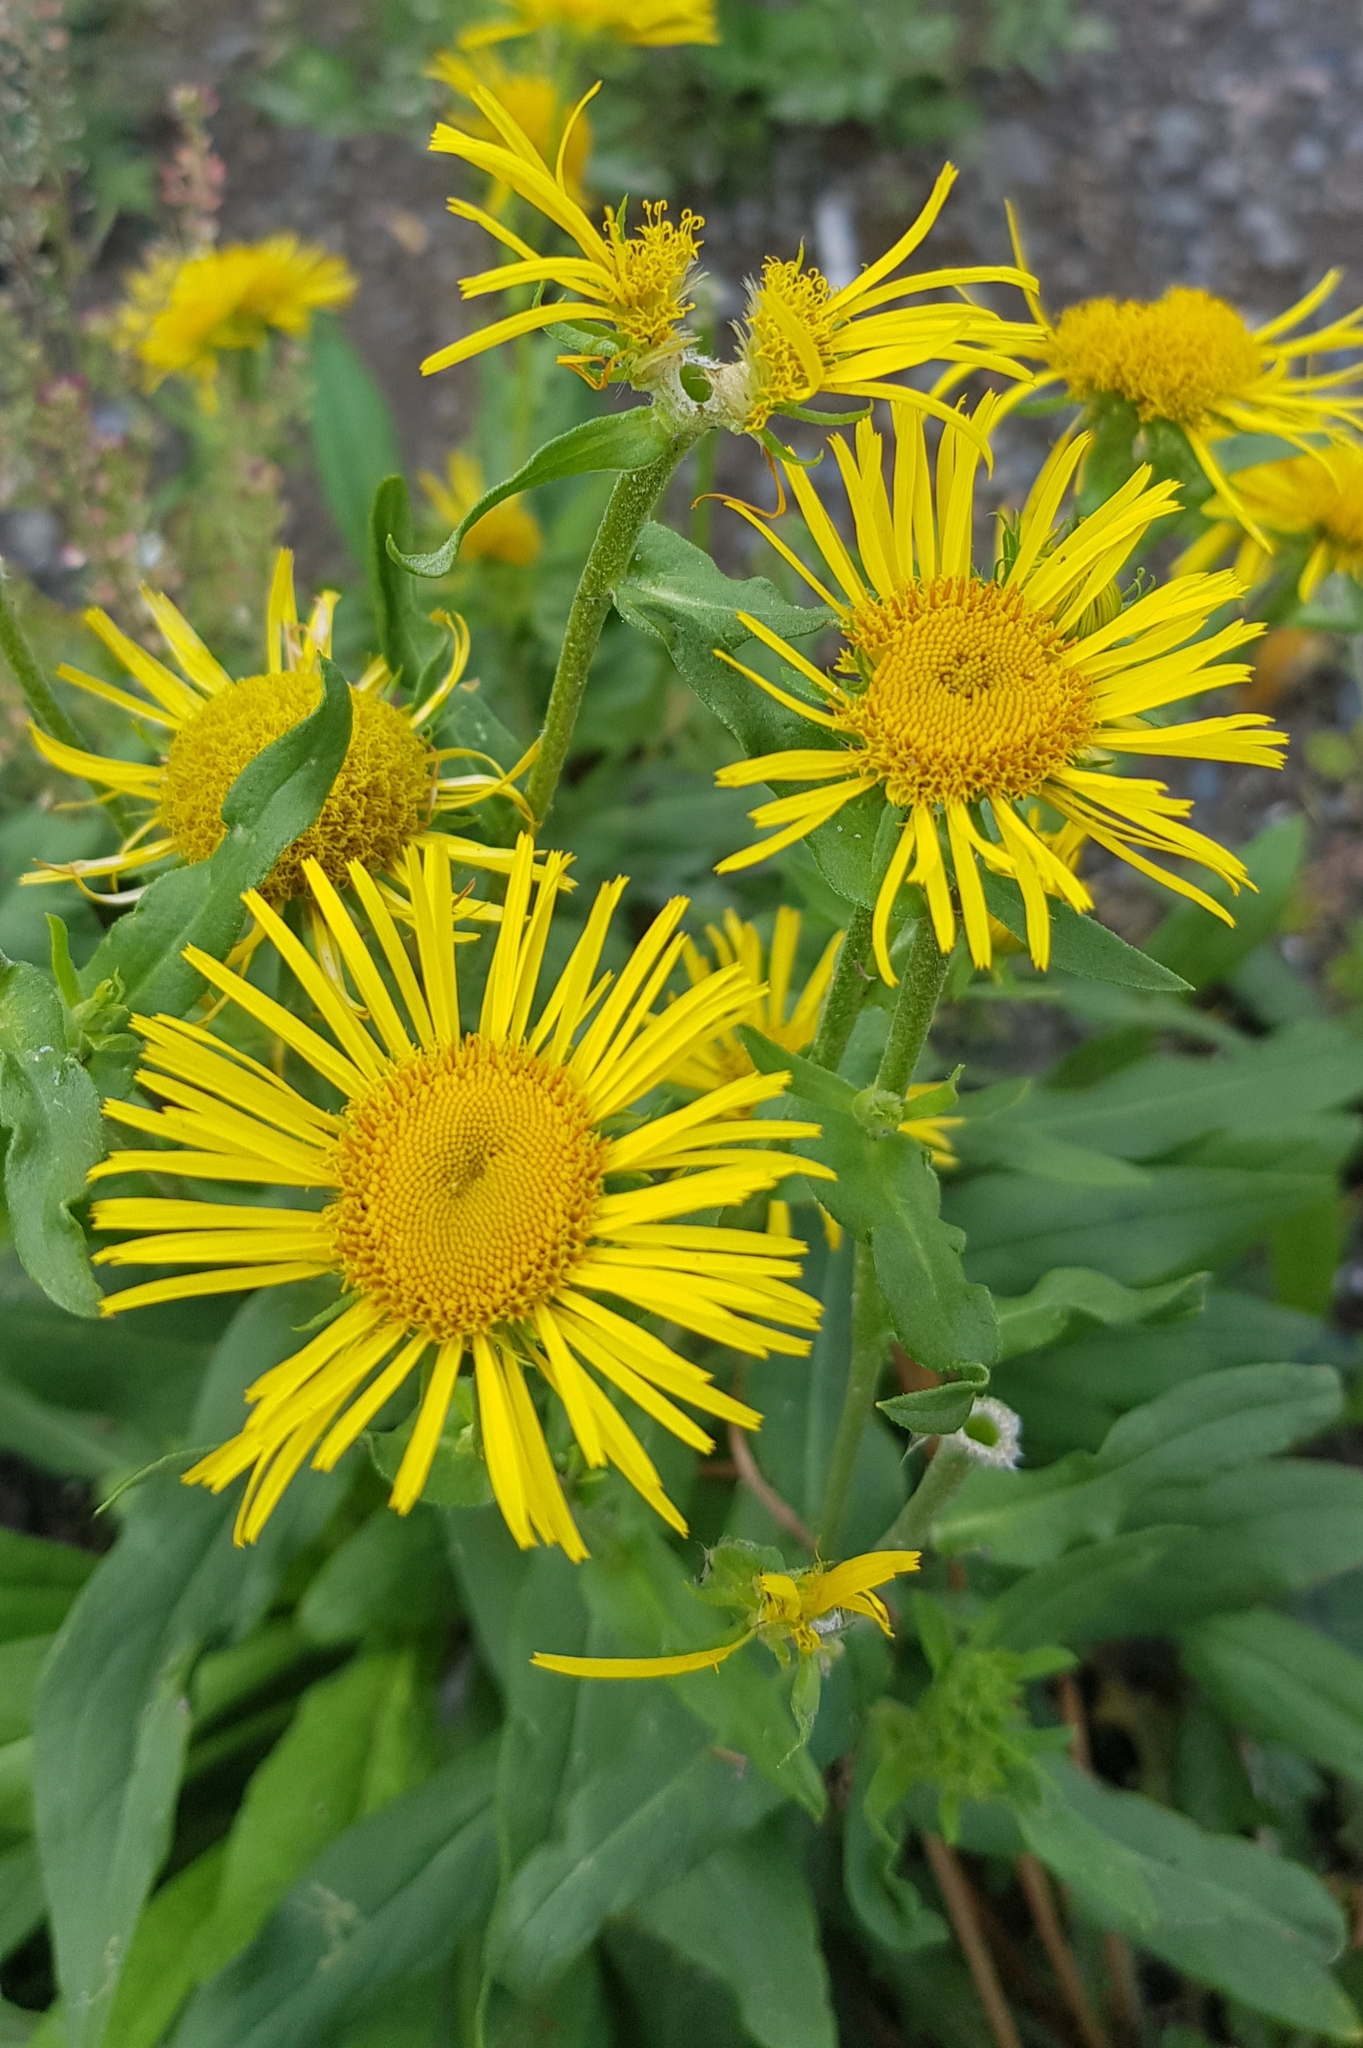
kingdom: Plantae
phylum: Tracheophyta
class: Magnoliopsida
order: Asterales
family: Asteraceae
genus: Pentanema
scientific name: Pentanema britannicum
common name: British elecampane
